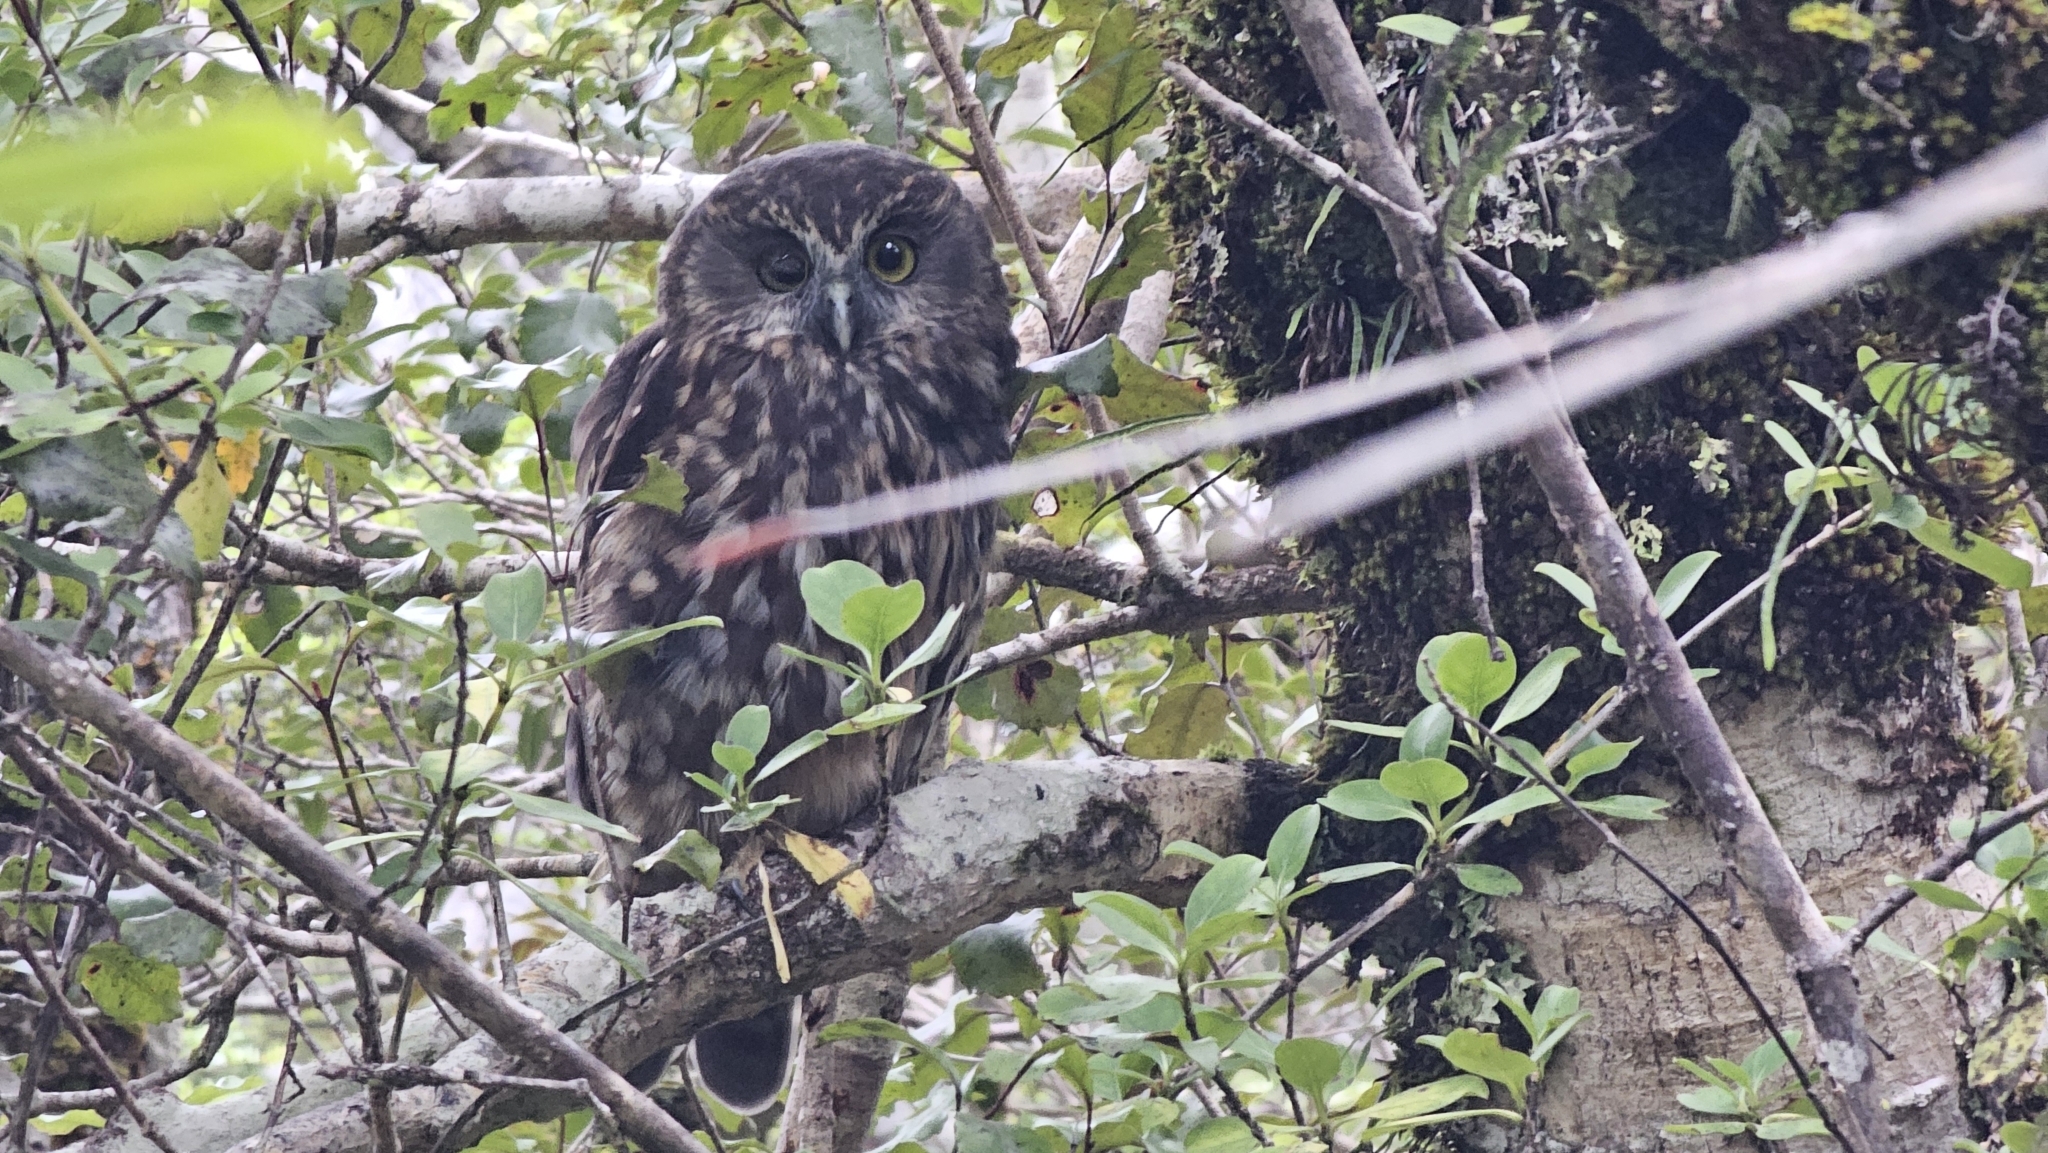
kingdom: Animalia
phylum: Chordata
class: Aves
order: Strigiformes
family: Strigidae
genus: Ninox
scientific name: Ninox novaeseelandiae
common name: Morepork
